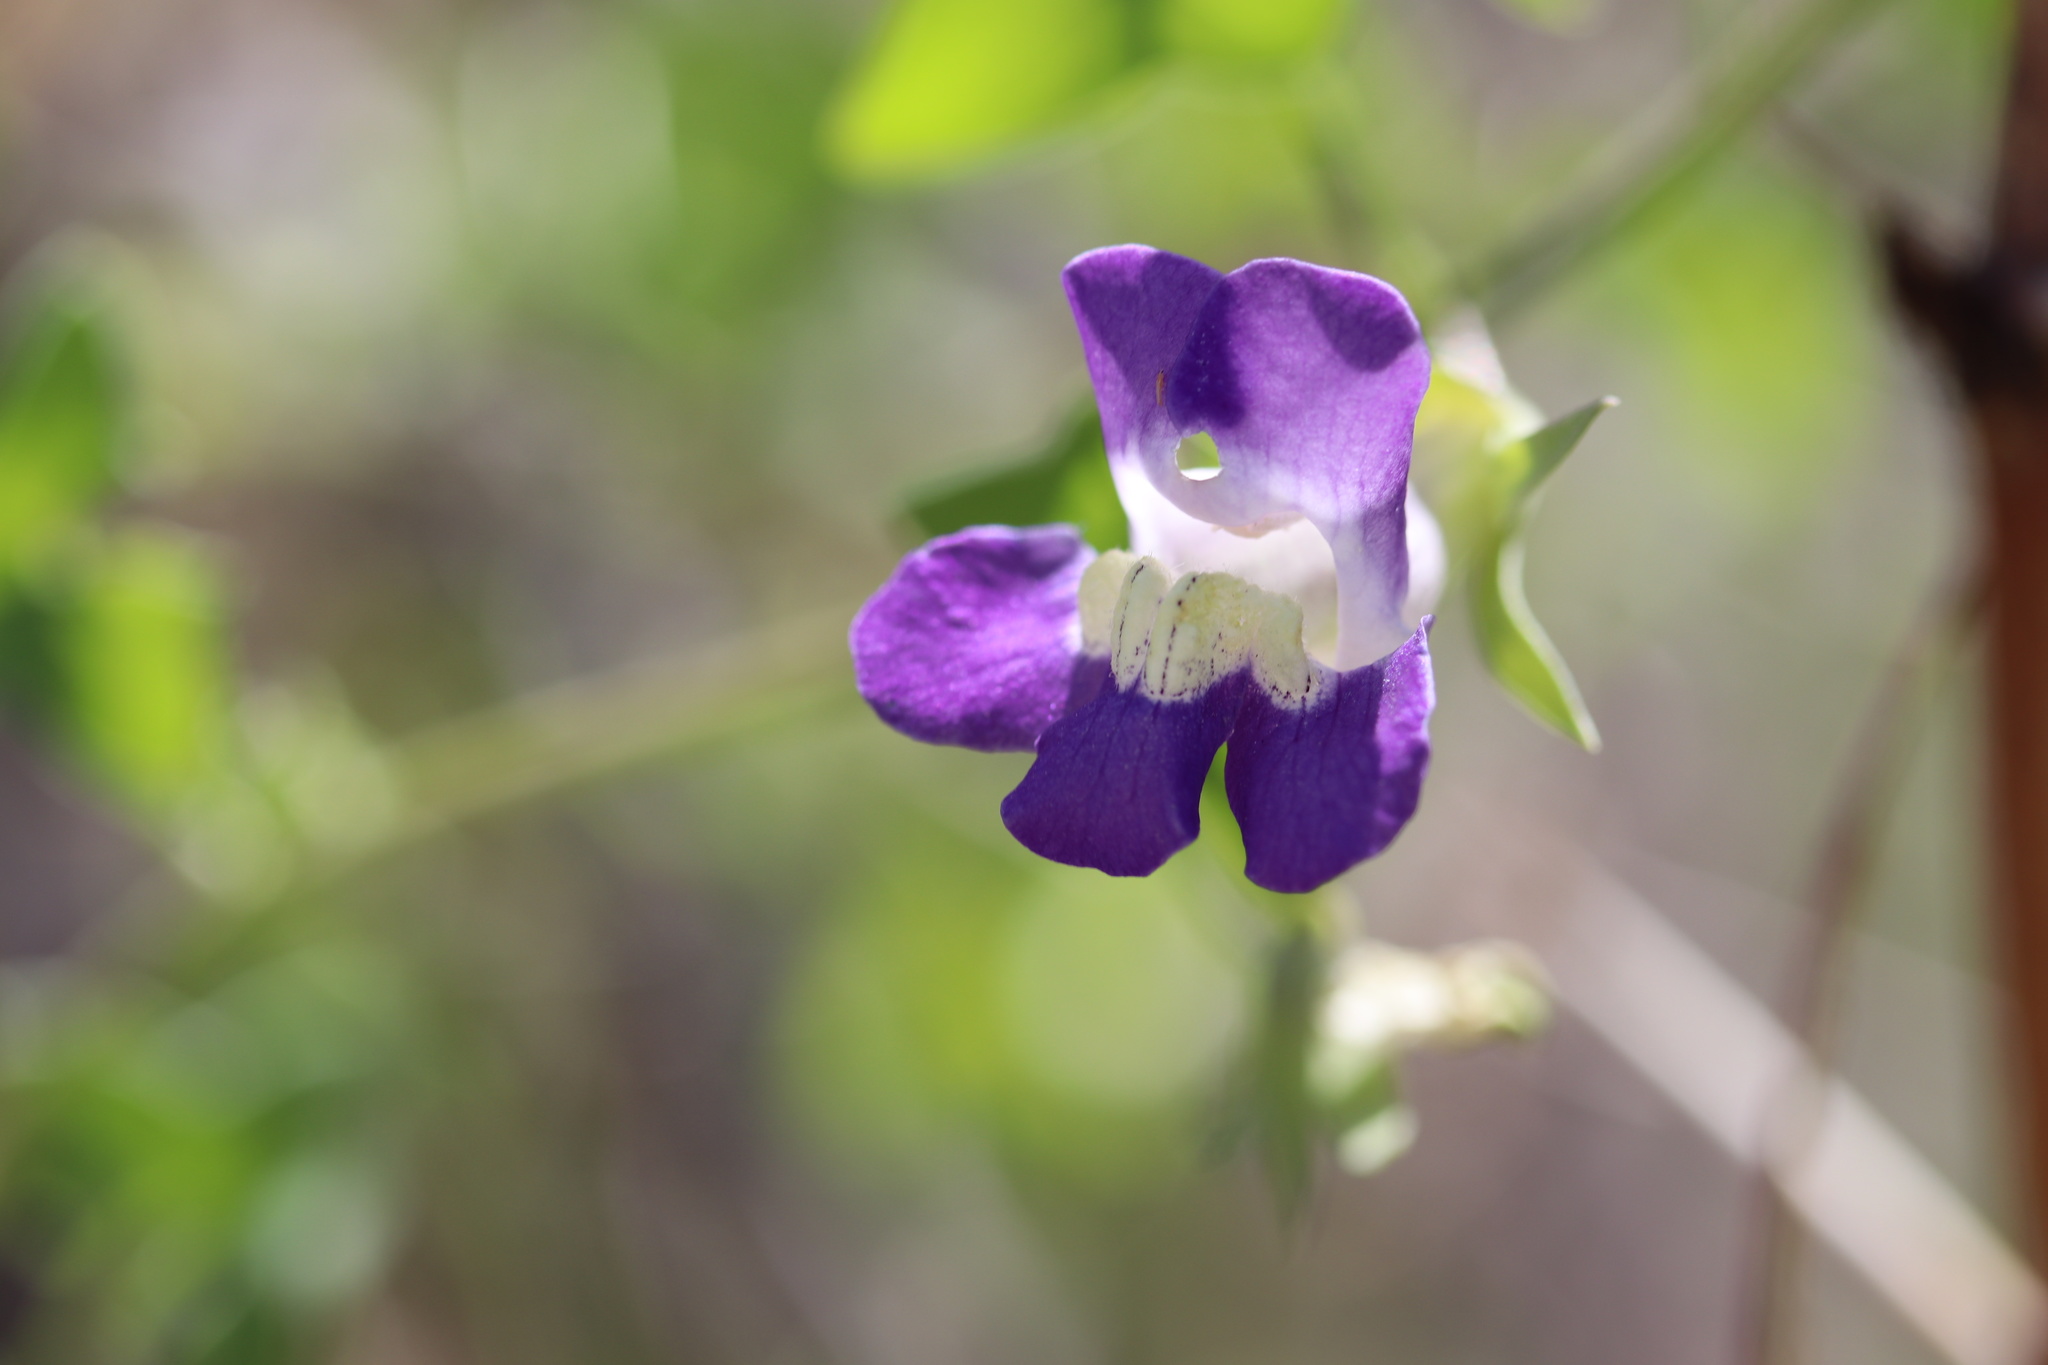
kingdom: Plantae
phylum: Tracheophyta
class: Magnoliopsida
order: Lamiales
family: Plantaginaceae
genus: Maurandella
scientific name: Maurandella antirrhiniflora
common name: Violet twining-snapdragon
